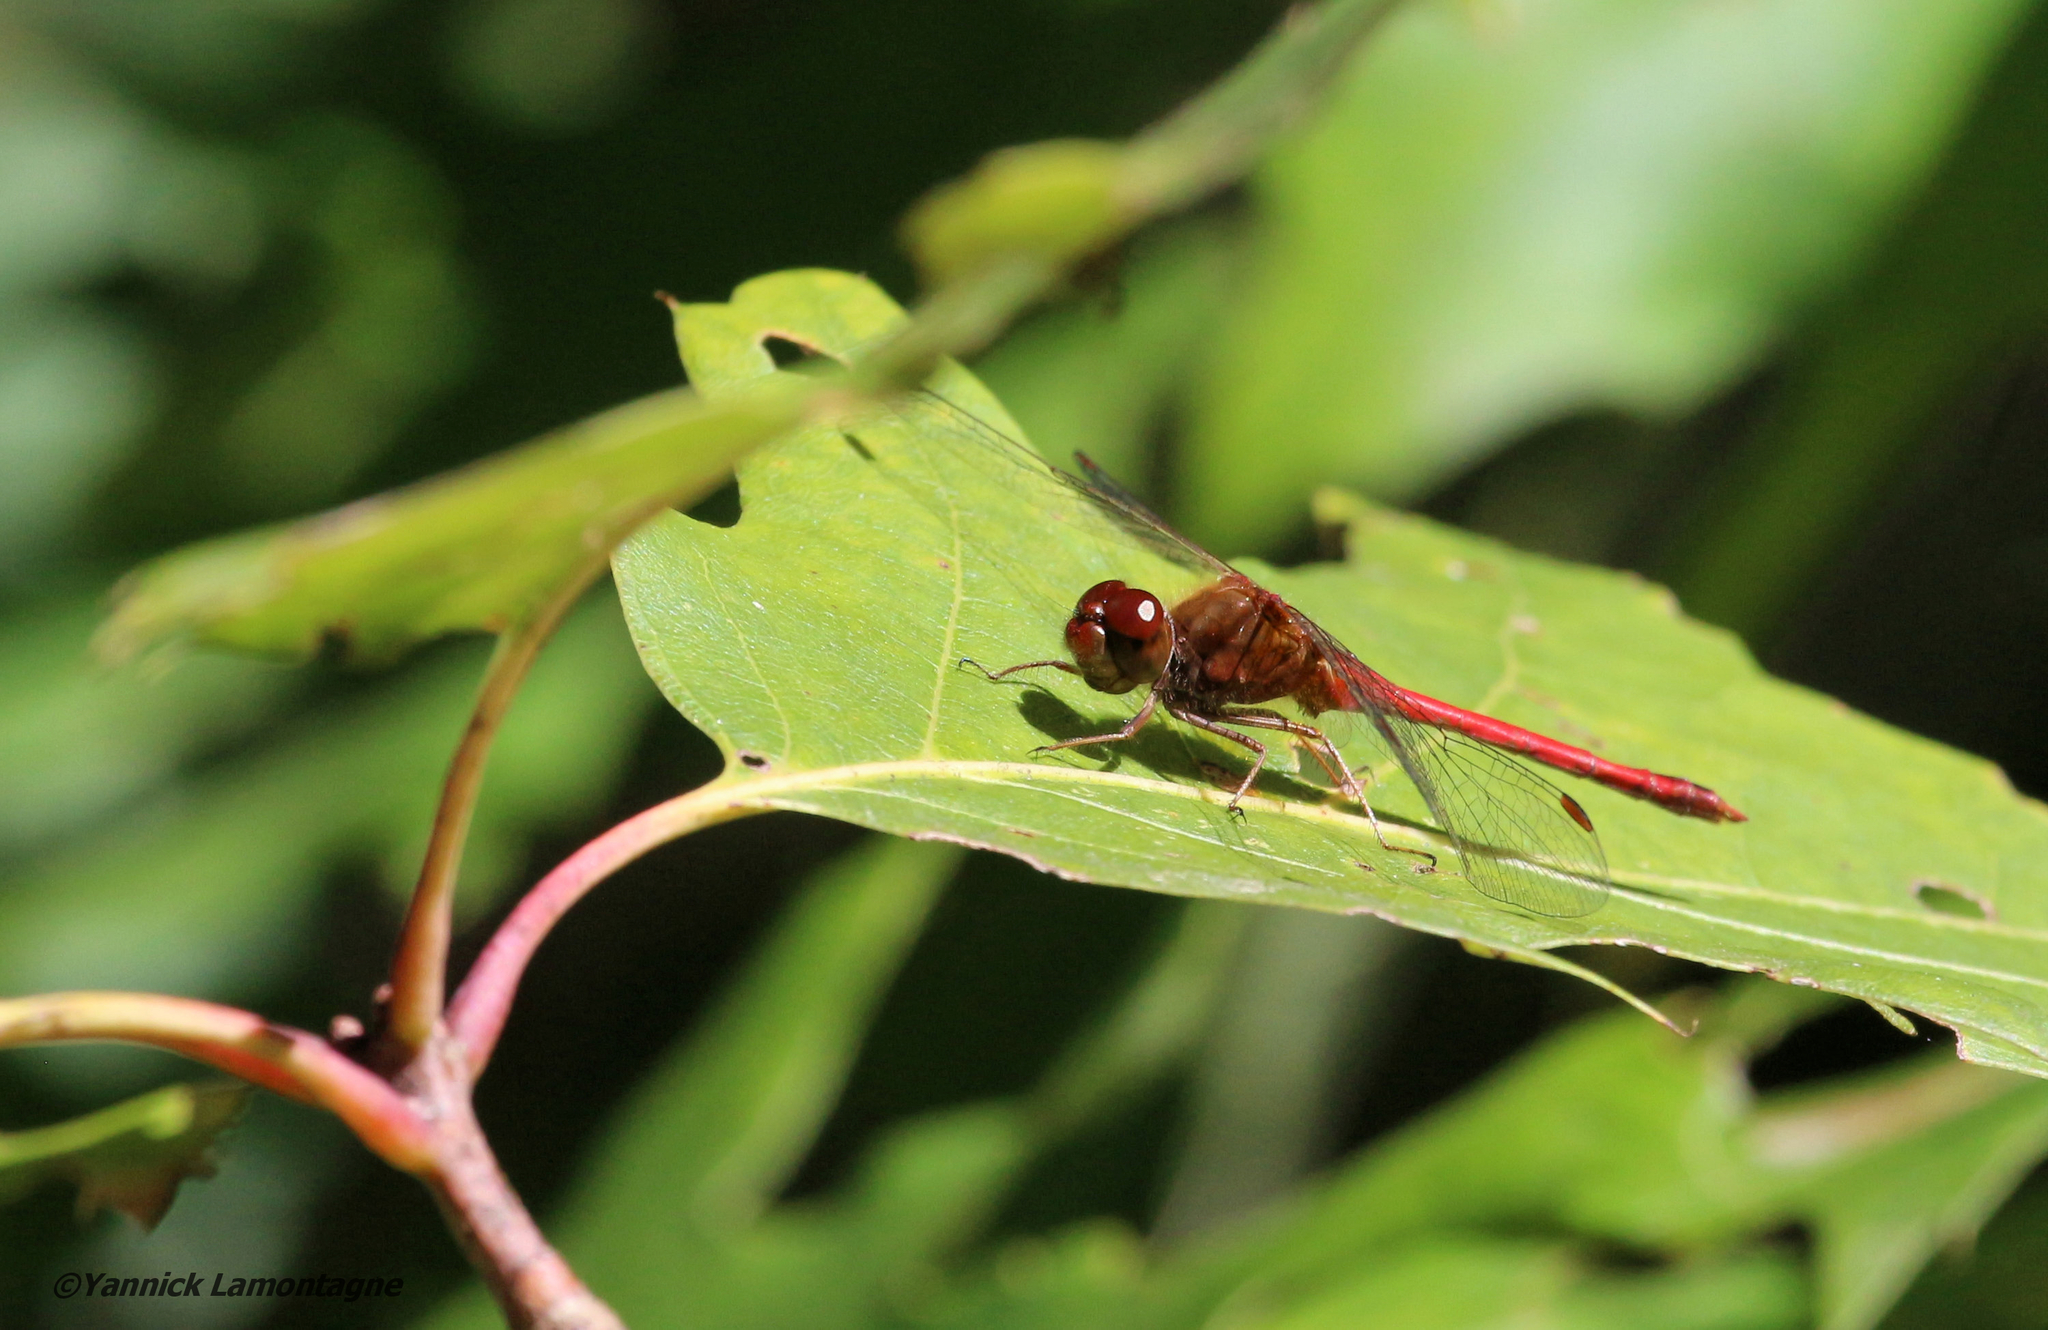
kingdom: Animalia
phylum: Arthropoda
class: Insecta
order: Odonata
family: Libellulidae
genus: Sympetrum
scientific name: Sympetrum vicinum
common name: Autumn meadowhawk
